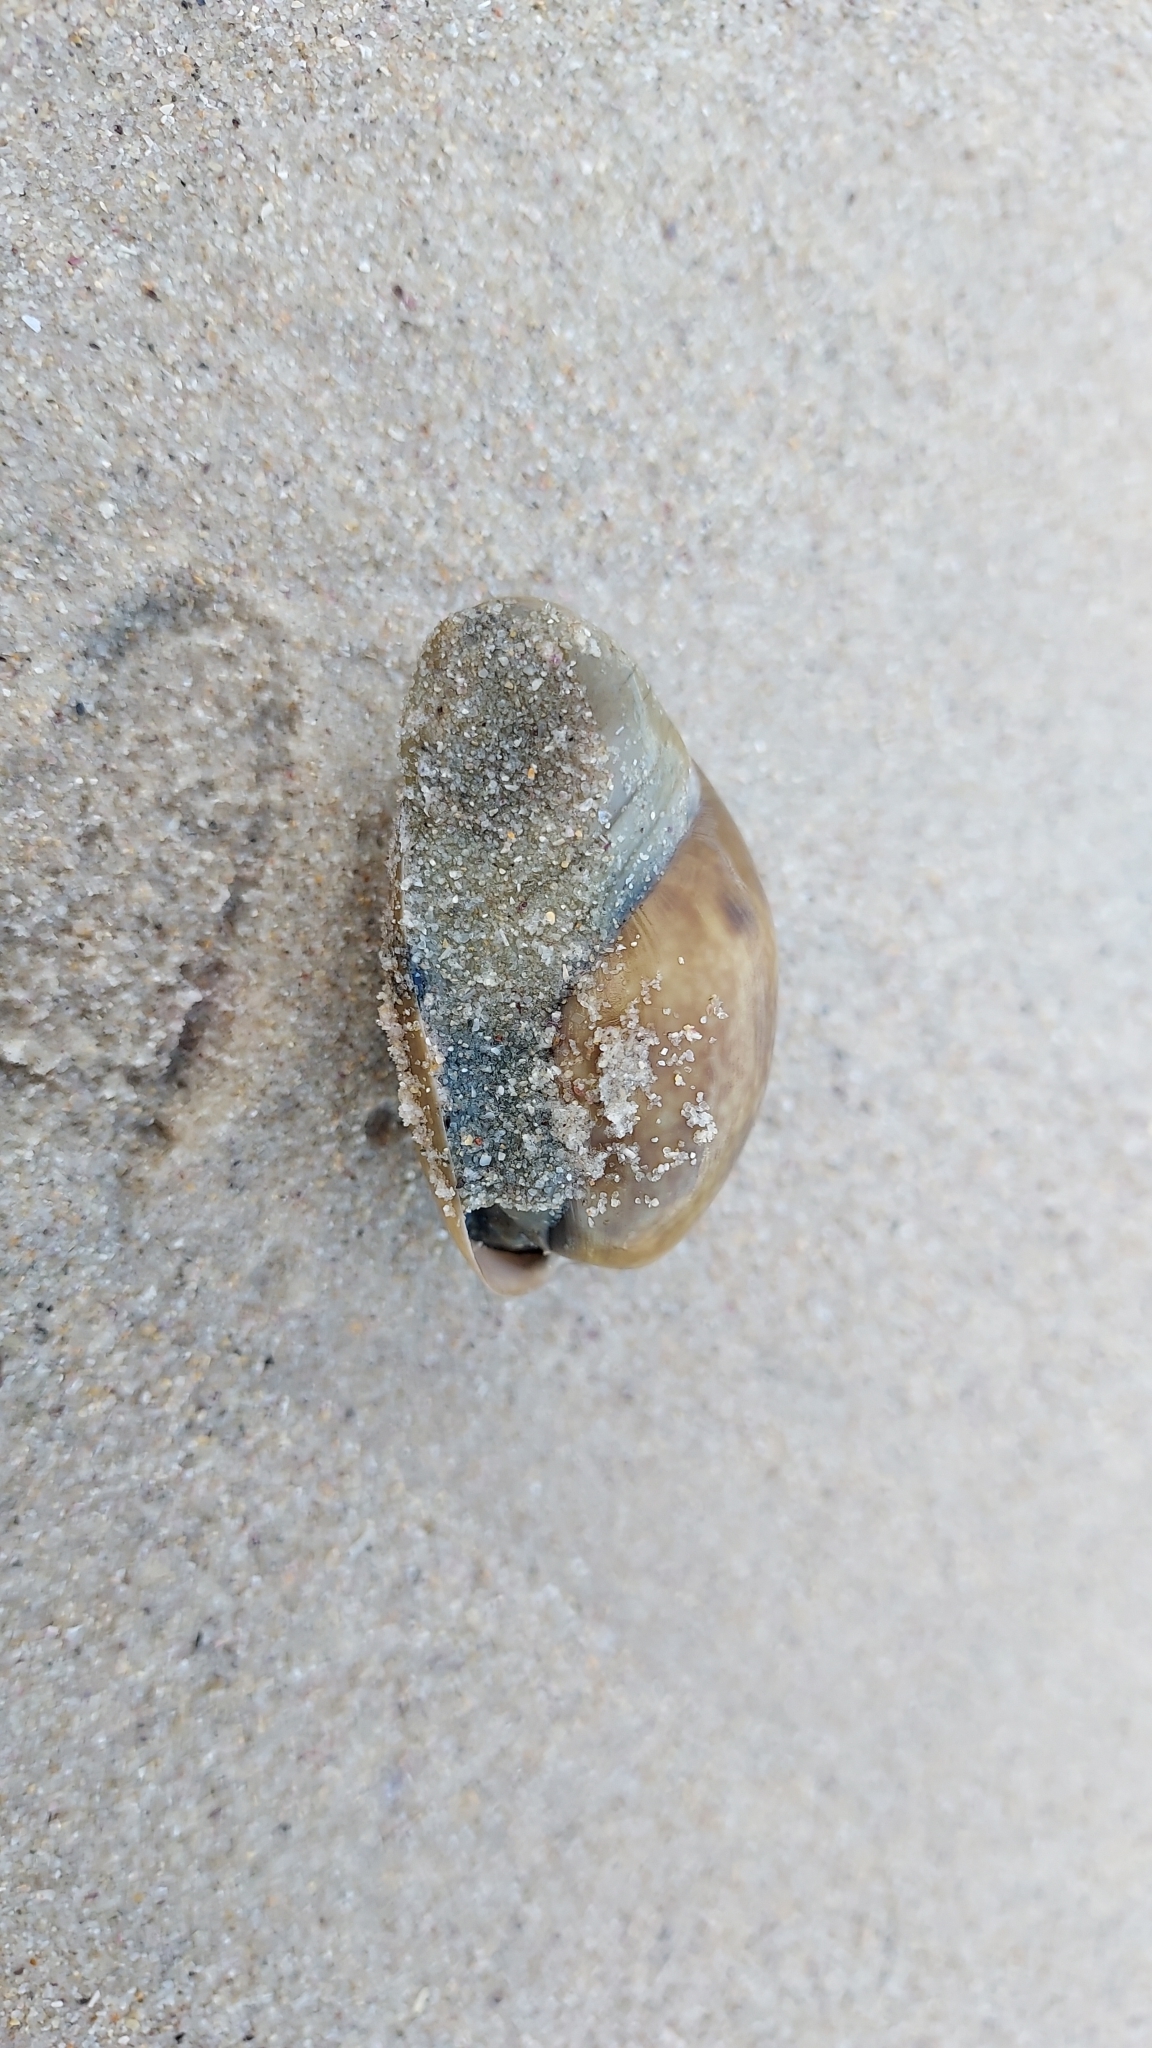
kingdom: Animalia
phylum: Mollusca
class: Gastropoda
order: Cephalaspidea
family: Bullidae
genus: Bulla
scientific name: Bulla quoyii
